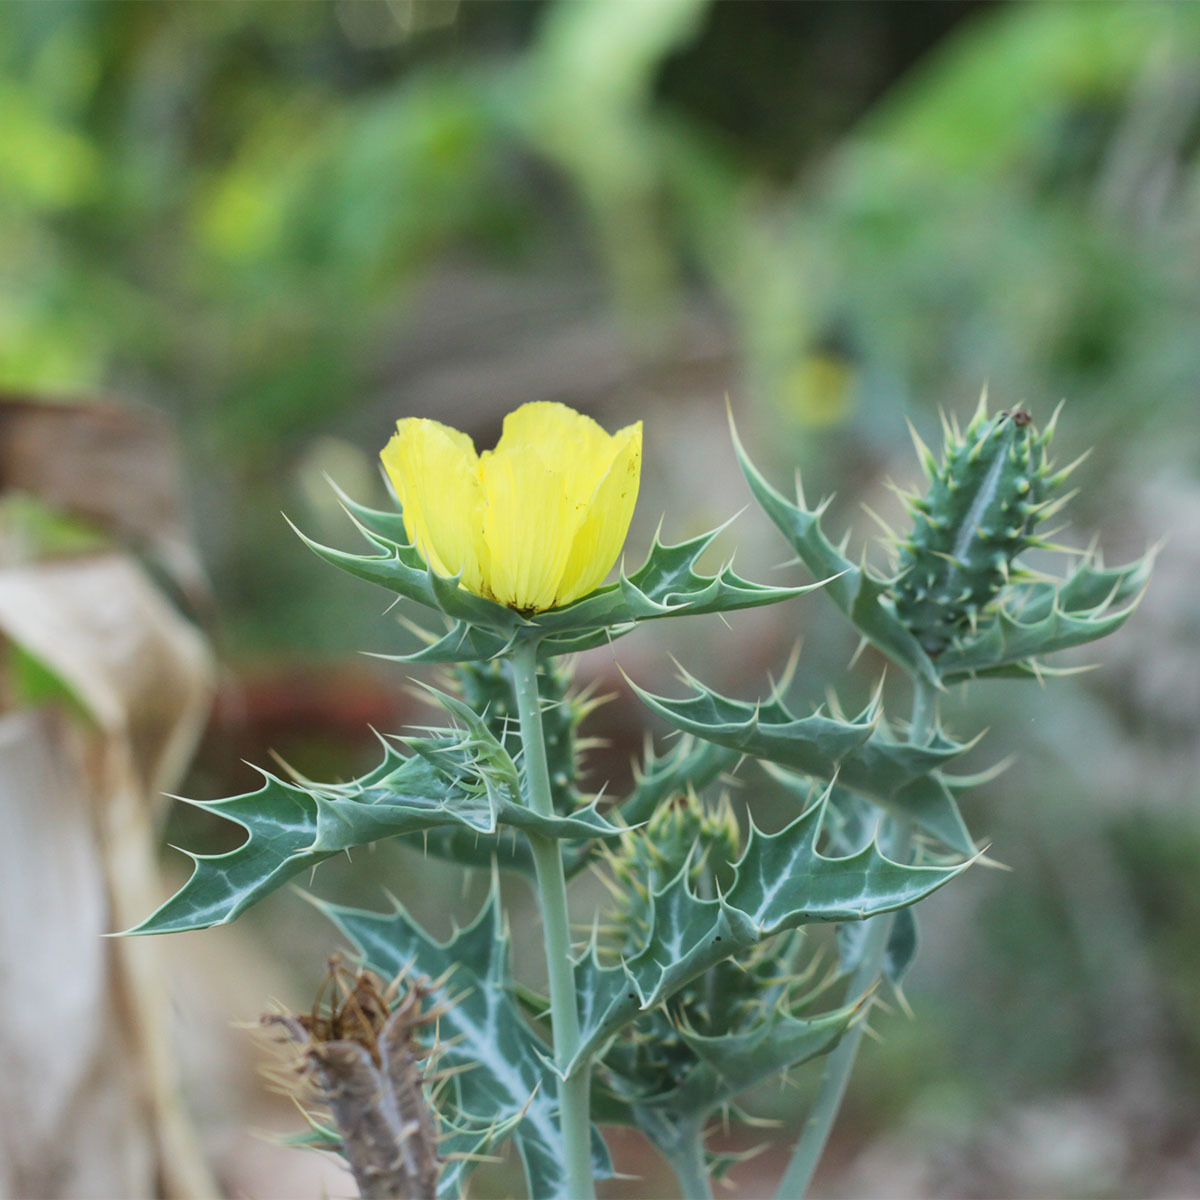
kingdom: Plantae
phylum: Tracheophyta
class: Magnoliopsida
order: Ranunculales
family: Papaveraceae
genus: Argemone
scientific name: Argemone mexicana
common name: Mexican poppy
